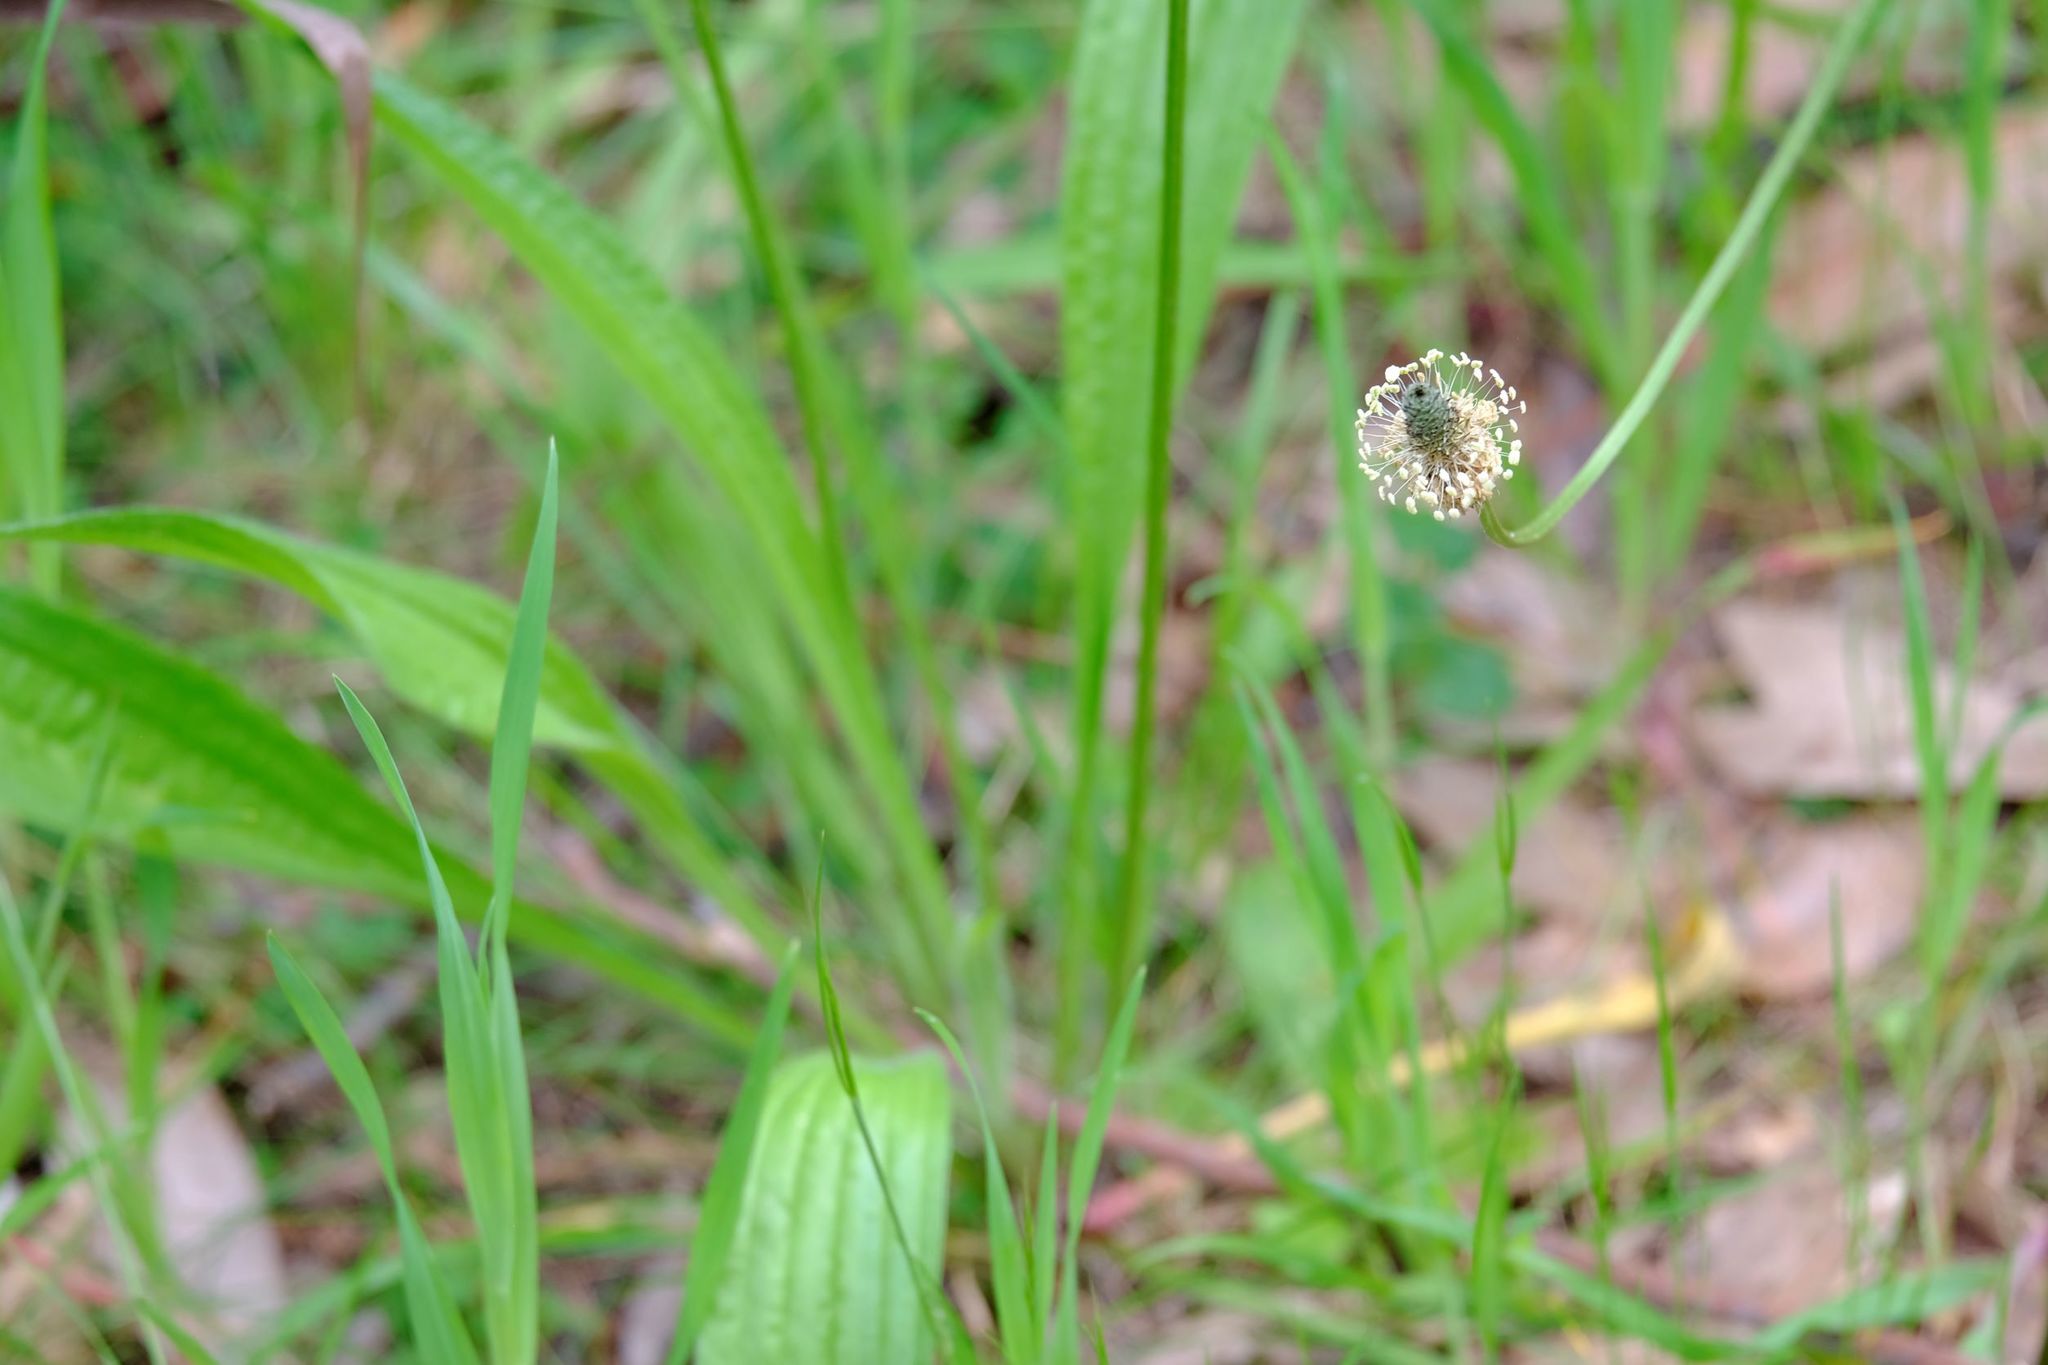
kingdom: Plantae
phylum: Tracheophyta
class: Magnoliopsida
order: Lamiales
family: Plantaginaceae
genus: Plantago
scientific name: Plantago lanceolata
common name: Ribwort plantain
